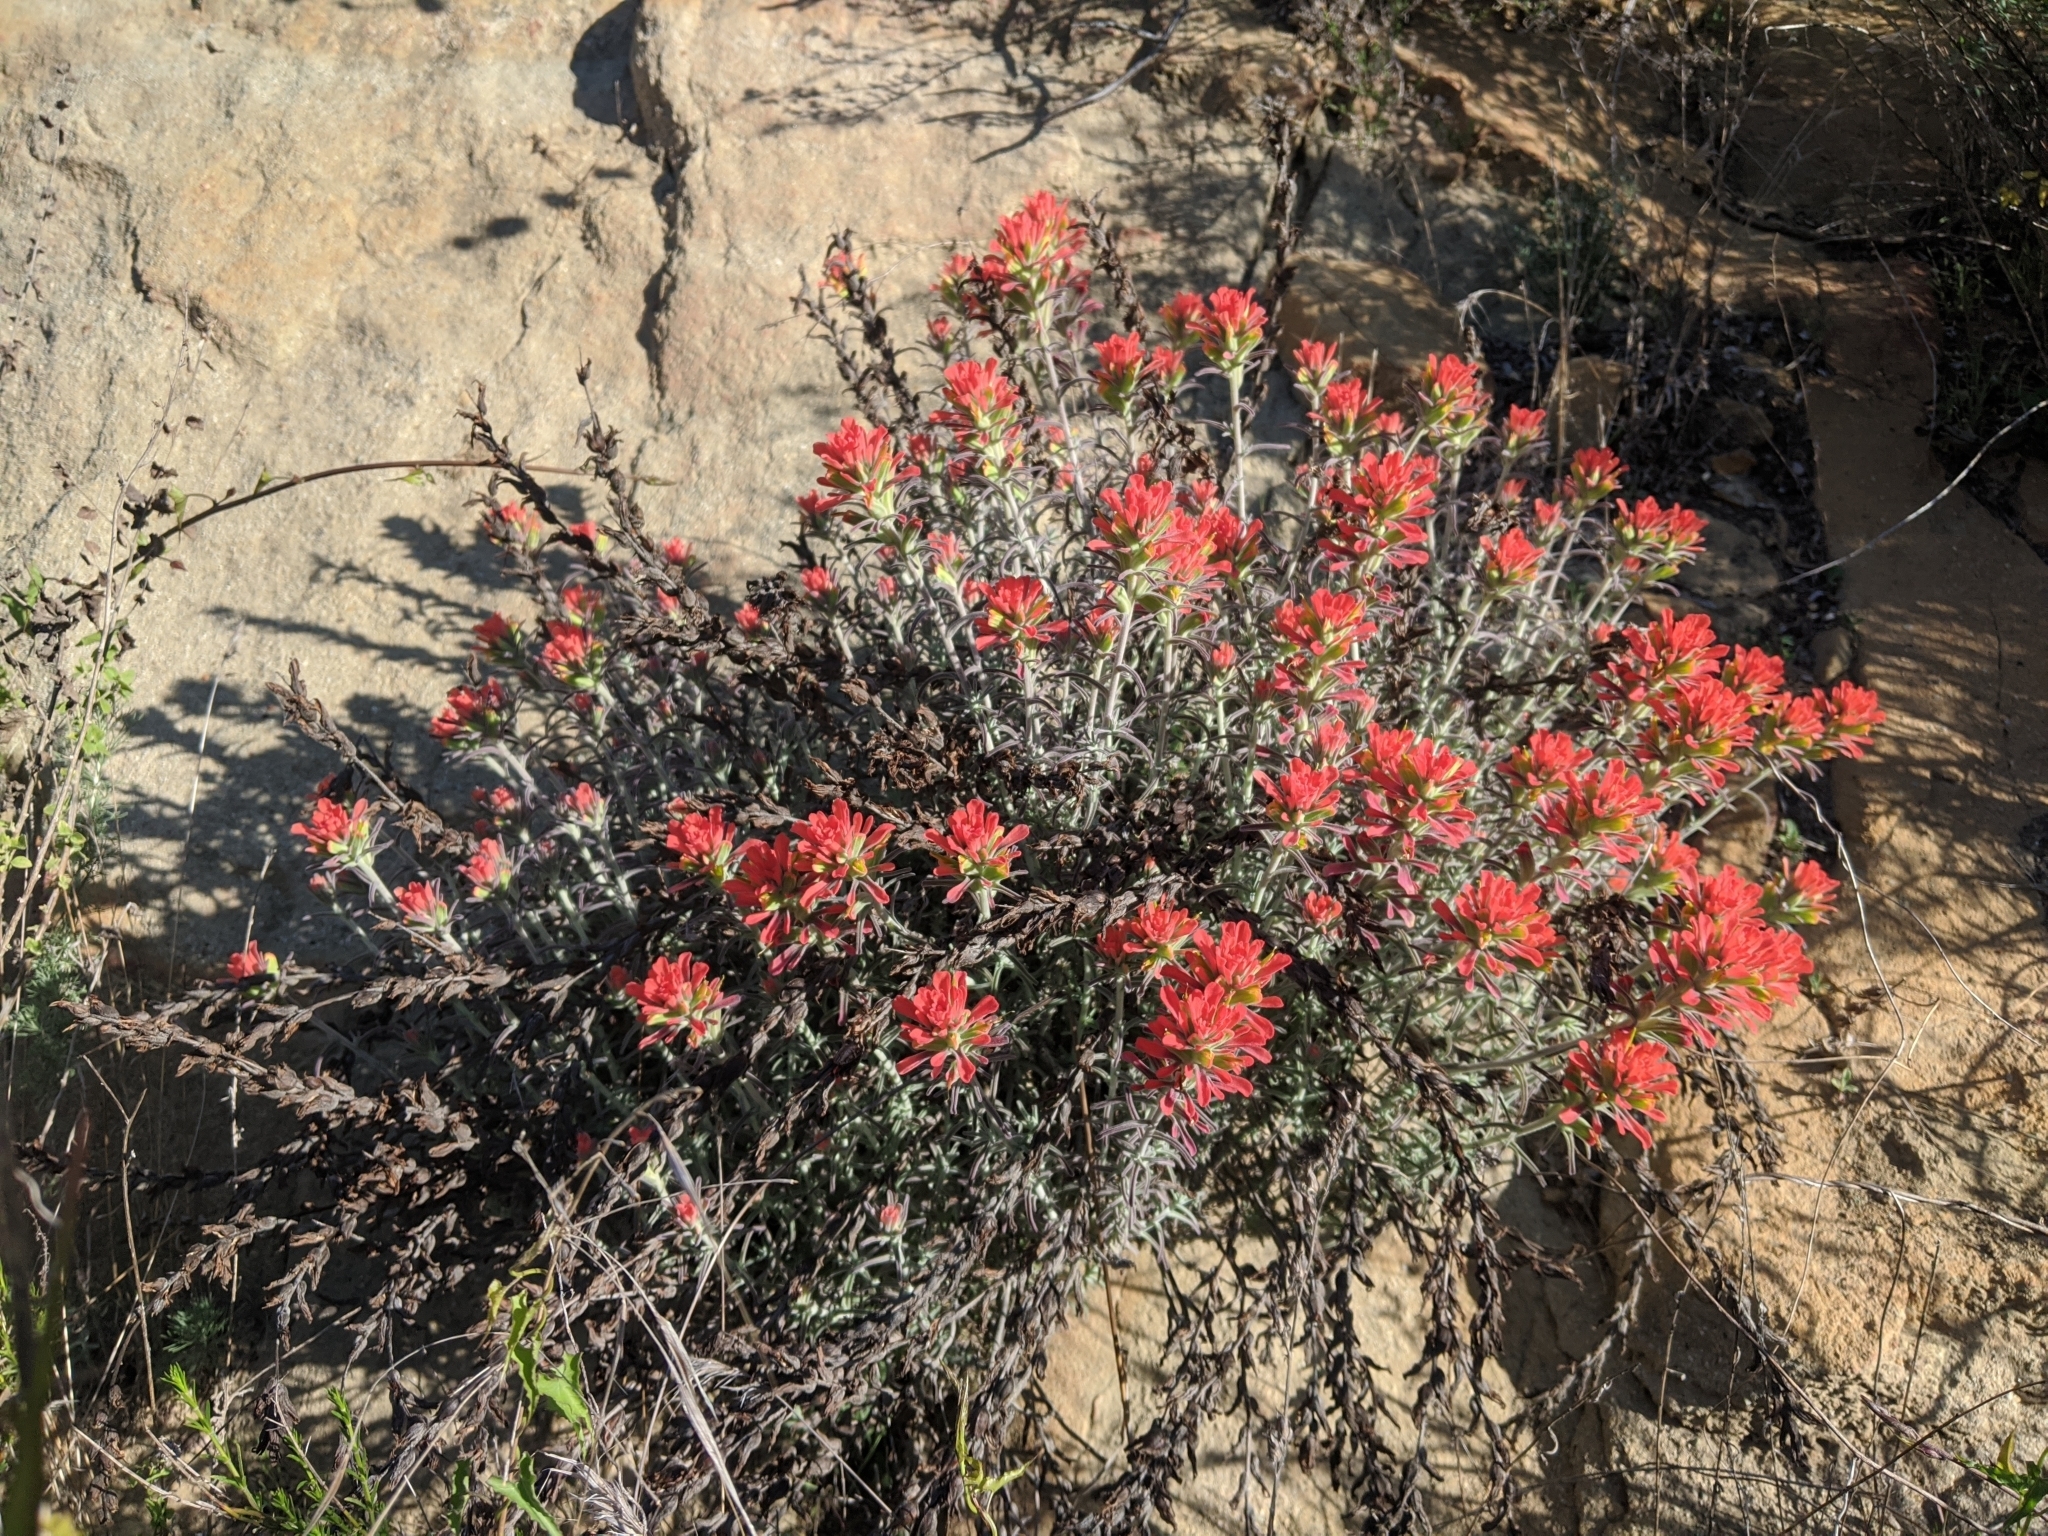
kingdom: Plantae
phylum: Tracheophyta
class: Magnoliopsida
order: Lamiales
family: Orobanchaceae
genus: Castilleja
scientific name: Castilleja foliolosa
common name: Woolly indian paintbrush
